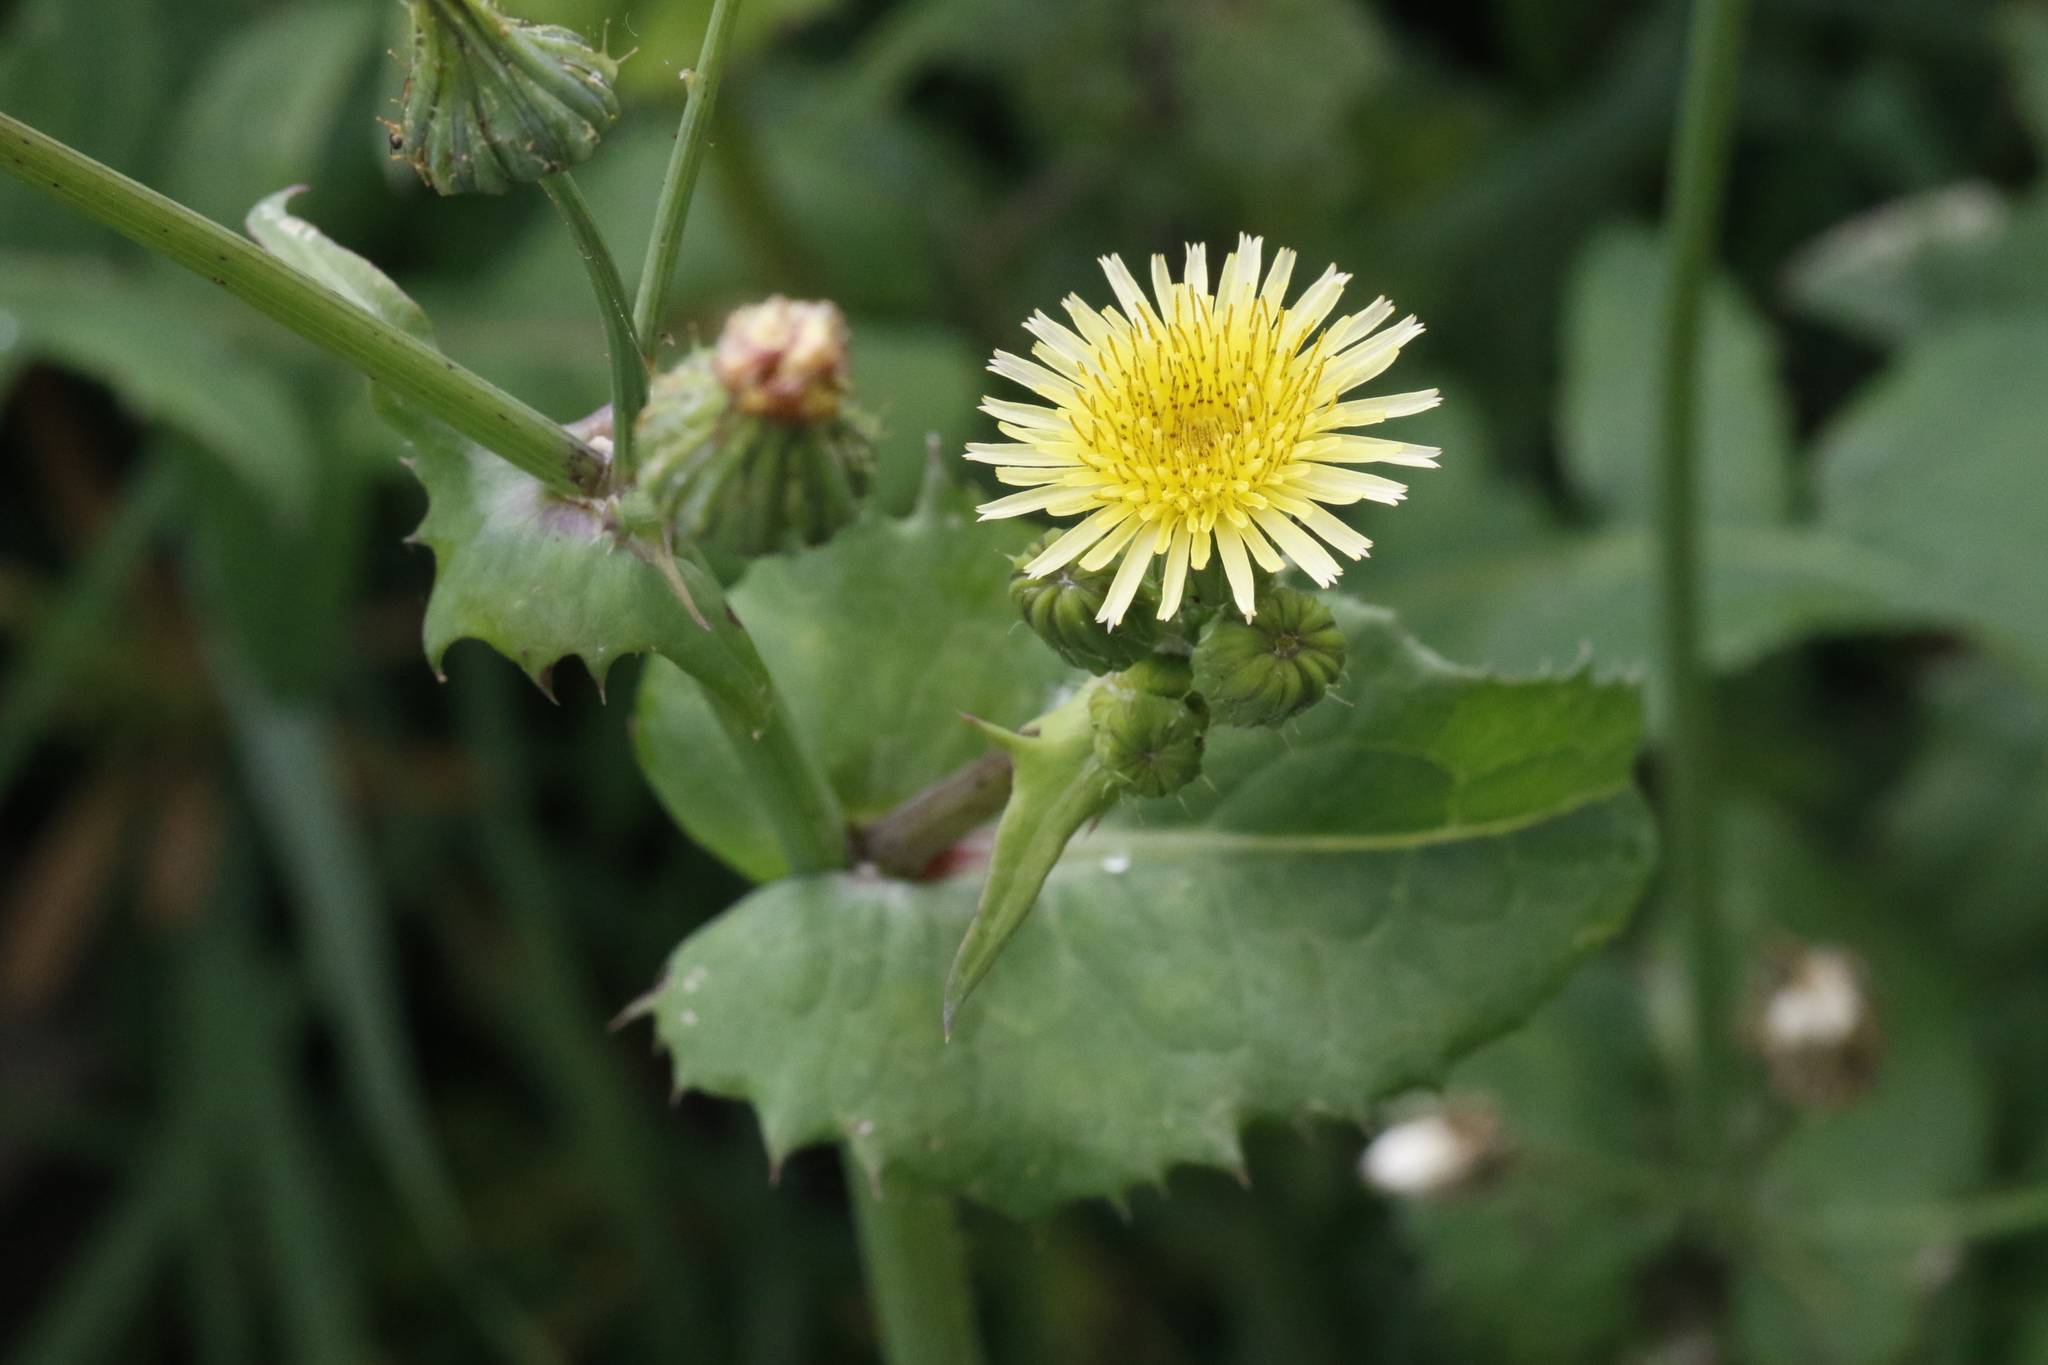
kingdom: Plantae
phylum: Tracheophyta
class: Magnoliopsida
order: Asterales
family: Asteraceae
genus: Sonchus
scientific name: Sonchus oleraceus
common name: Common sowthistle
